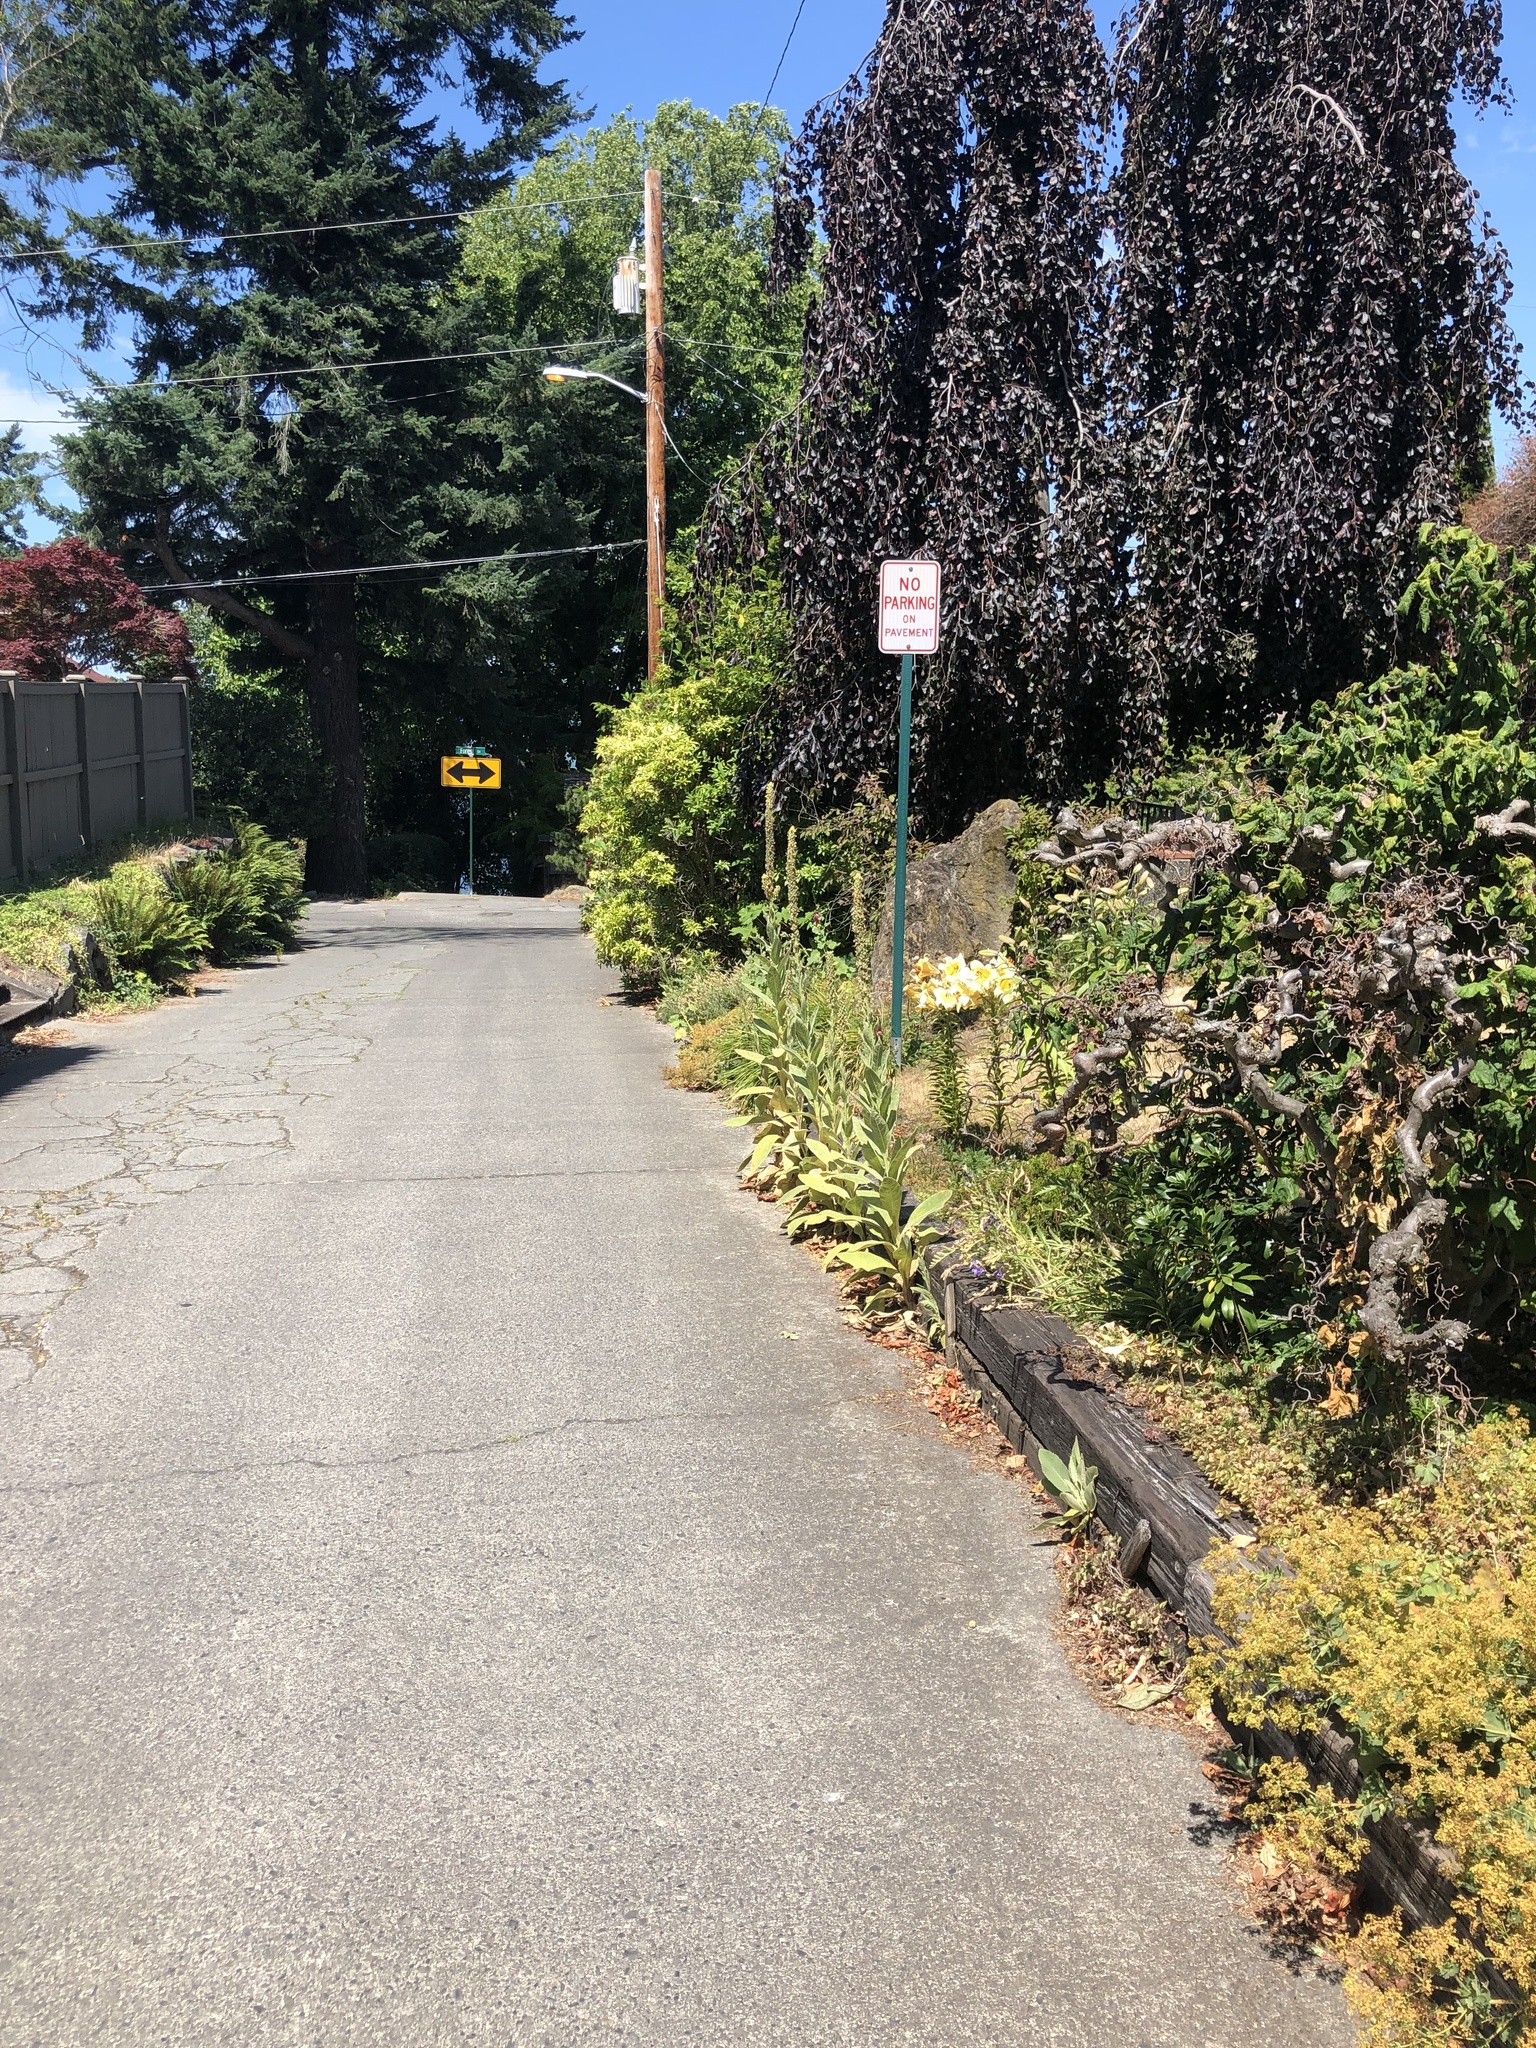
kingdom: Plantae
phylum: Tracheophyta
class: Magnoliopsida
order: Lamiales
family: Scrophulariaceae
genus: Verbascum
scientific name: Verbascum thapsus
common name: Common mullein
